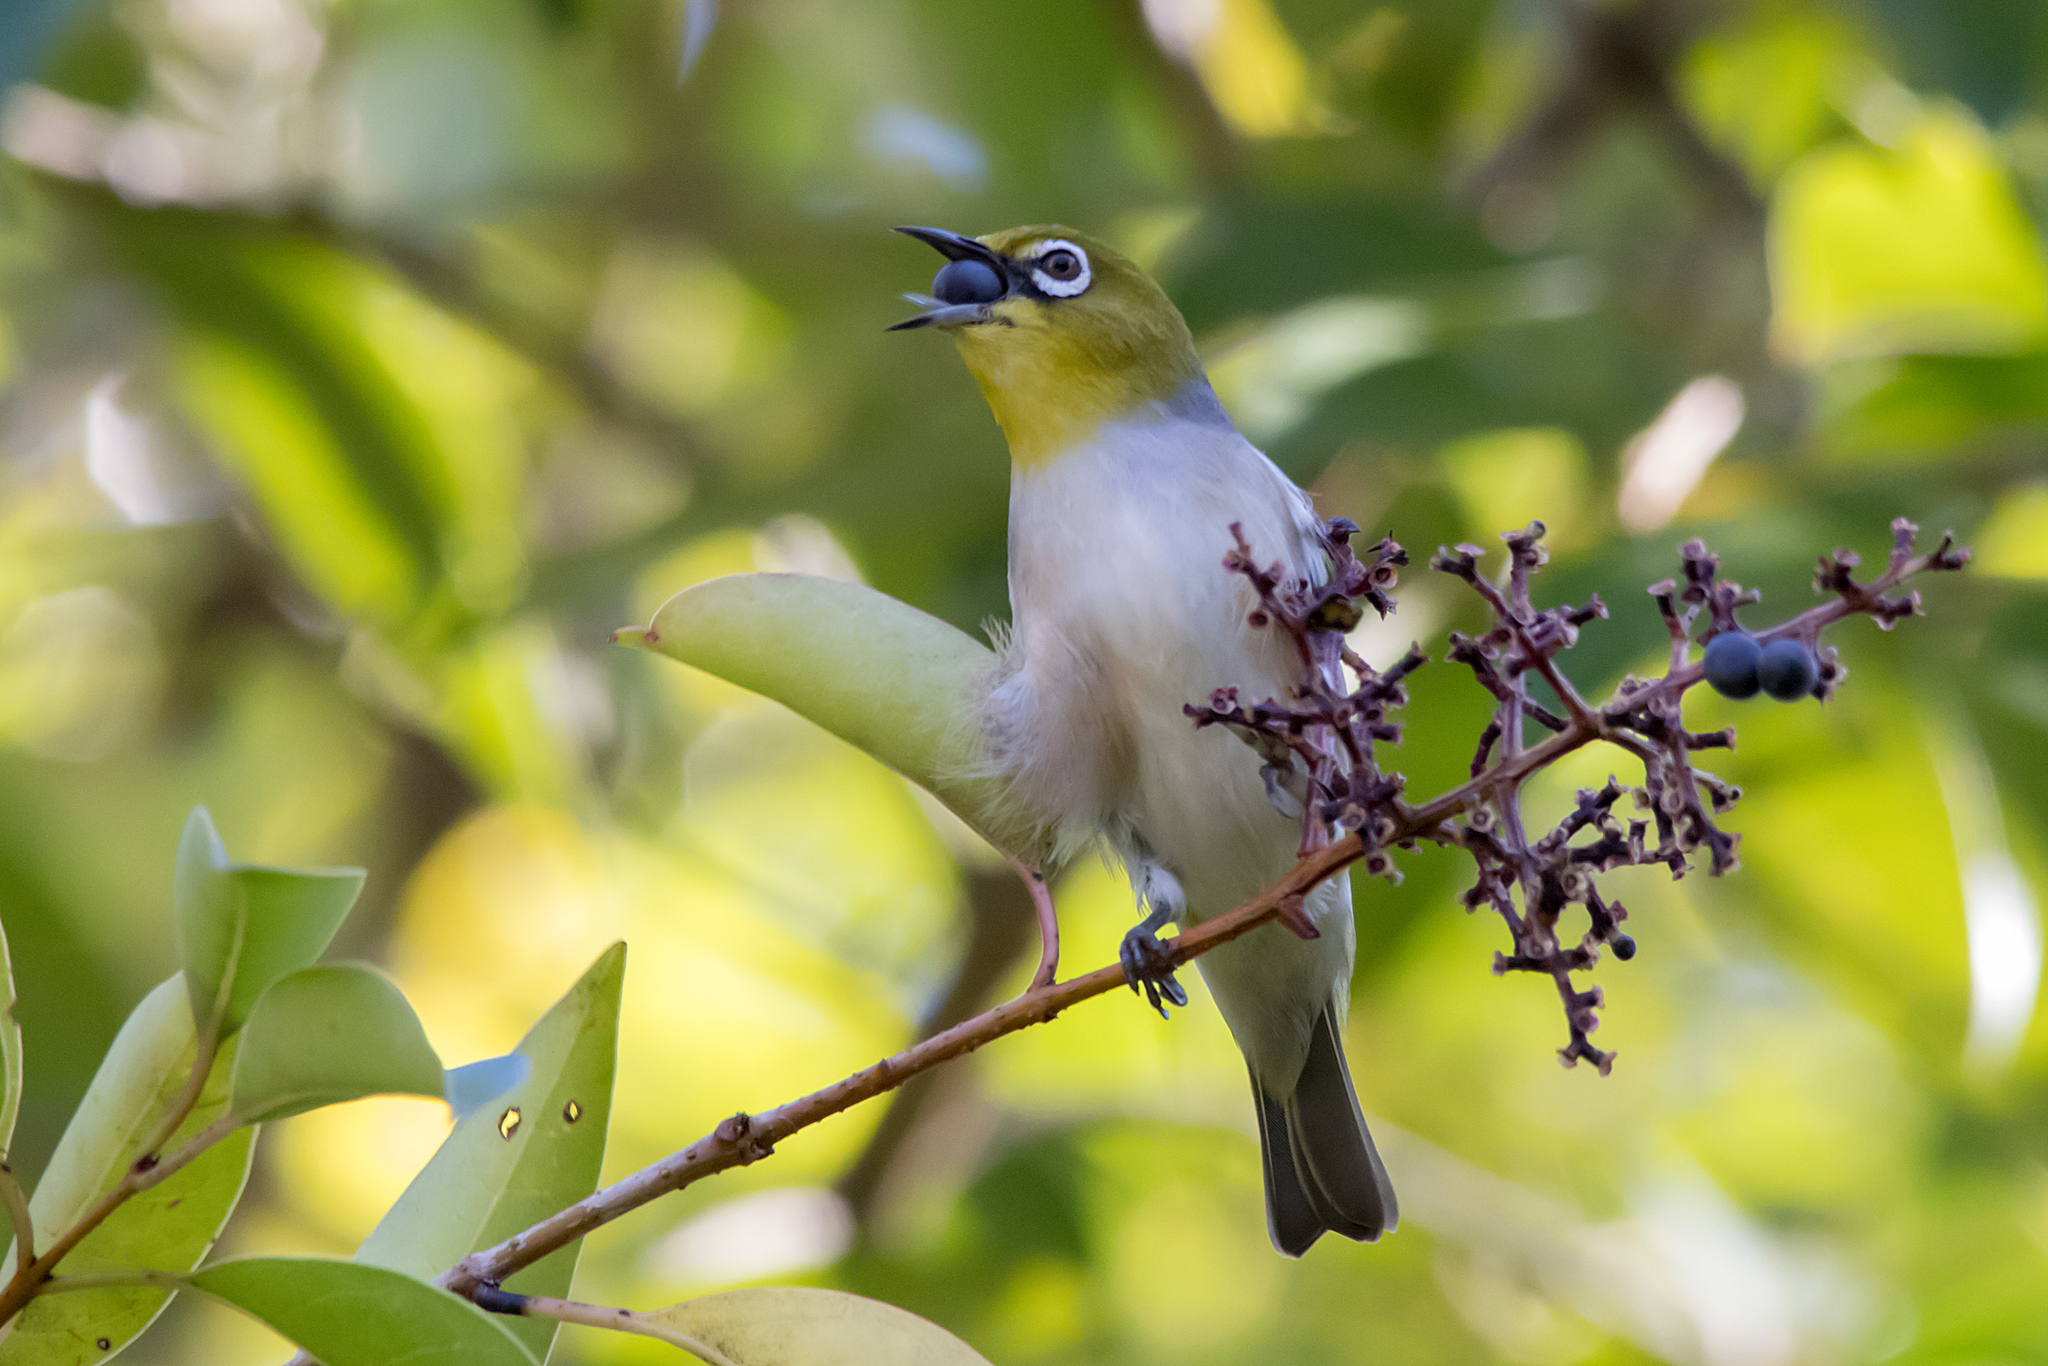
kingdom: Animalia
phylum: Chordata
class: Aves
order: Passeriformes
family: Zosteropidae
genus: Zosterops
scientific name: Zosterops lateralis
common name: Silvereye
